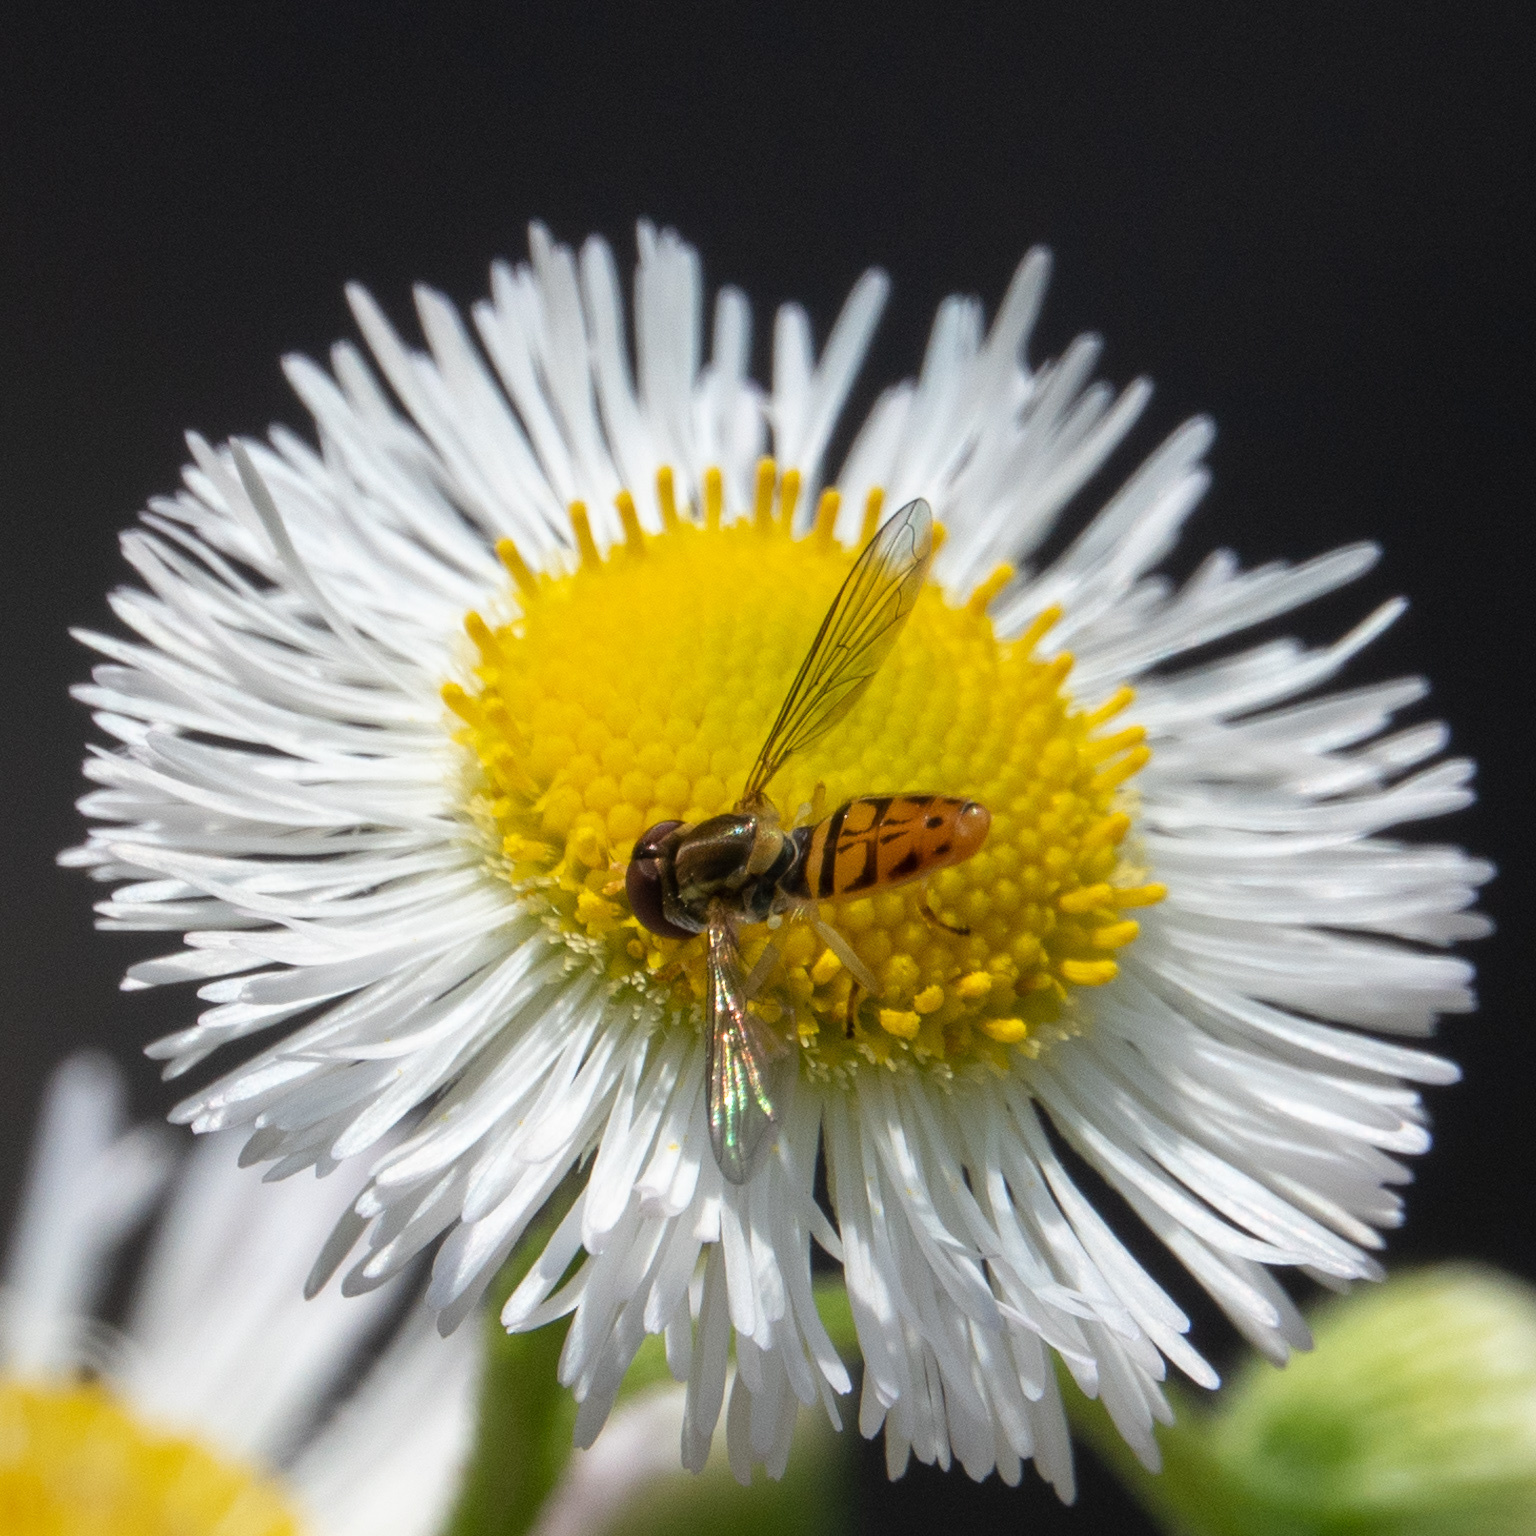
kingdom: Animalia
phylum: Arthropoda
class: Insecta
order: Diptera
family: Syrphidae
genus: Toxomerus
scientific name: Toxomerus marginatus
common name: Syrphid fly
